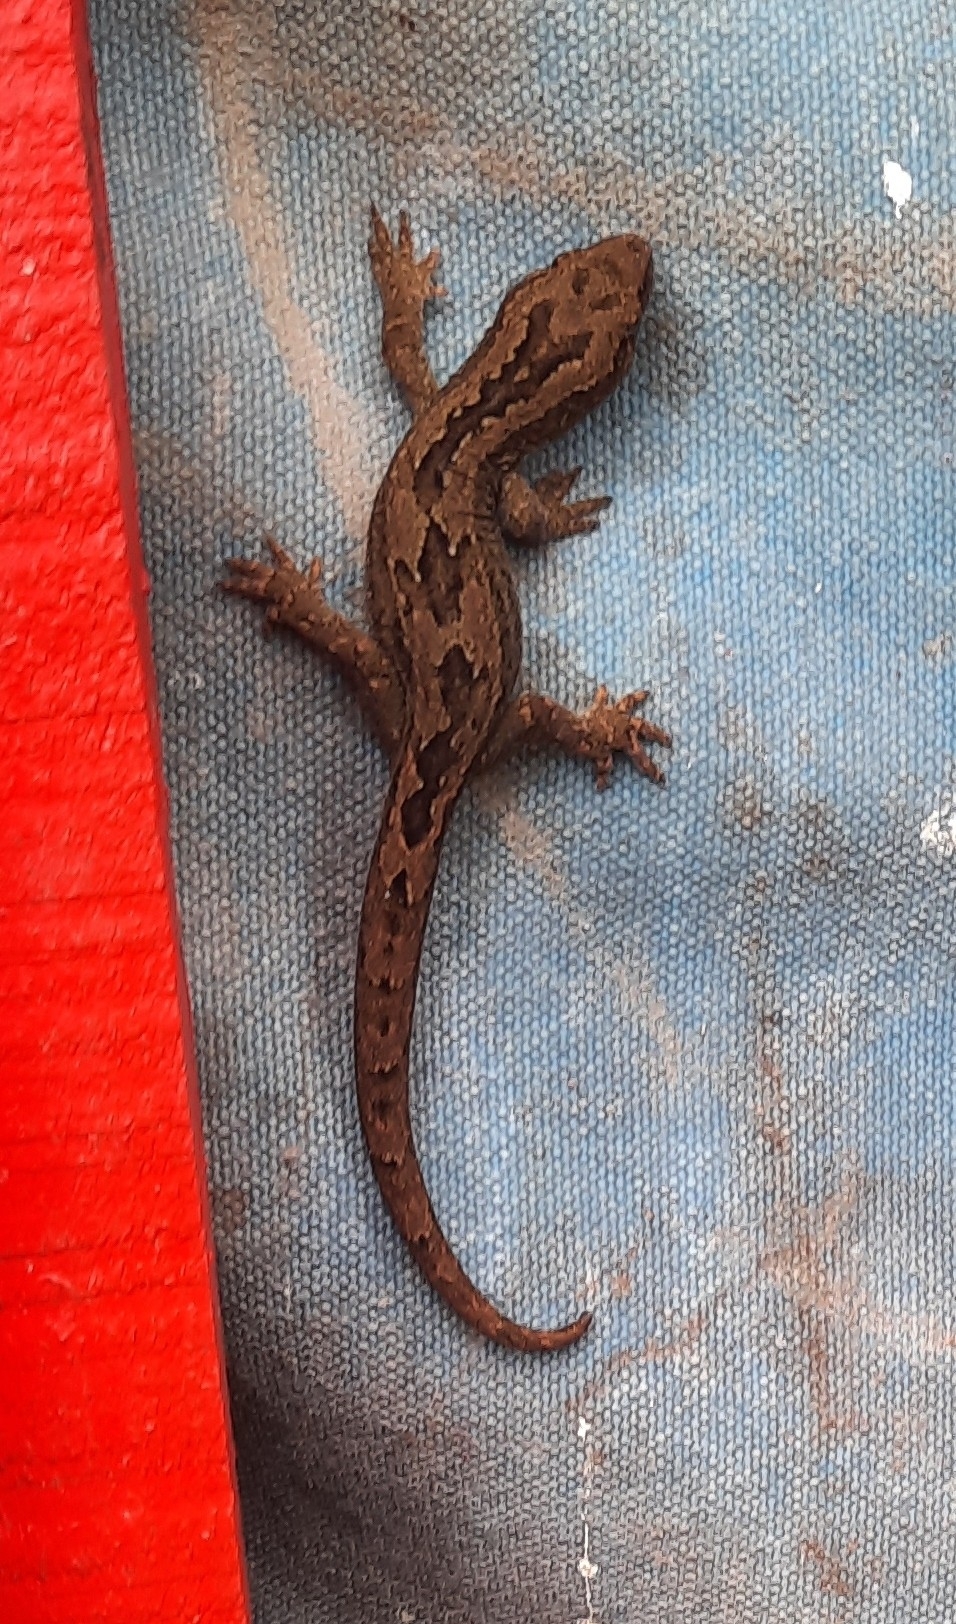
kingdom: Animalia
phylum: Chordata
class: Squamata
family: Diplodactylidae
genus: Woodworthia
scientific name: Woodworthia maculata
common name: Raukawa gecko
